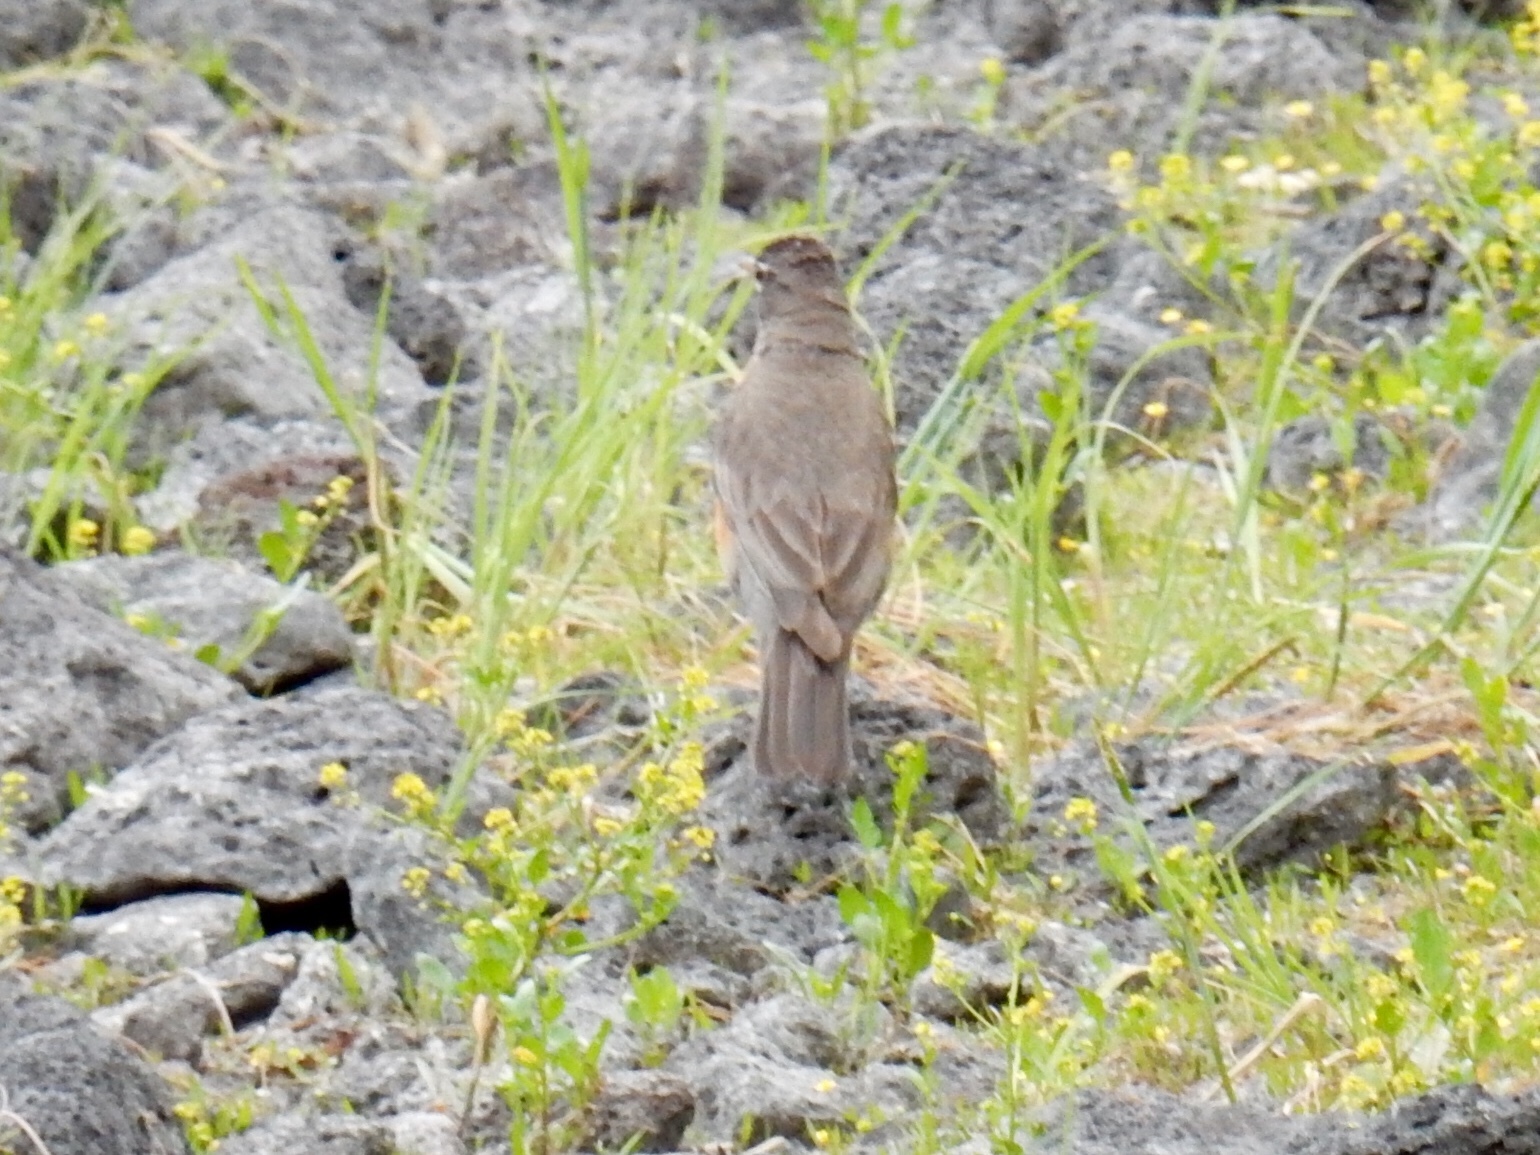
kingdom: Animalia
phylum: Chordata
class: Aves
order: Passeriformes
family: Turdidae
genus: Turdus
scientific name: Turdus migratorius
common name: American robin
